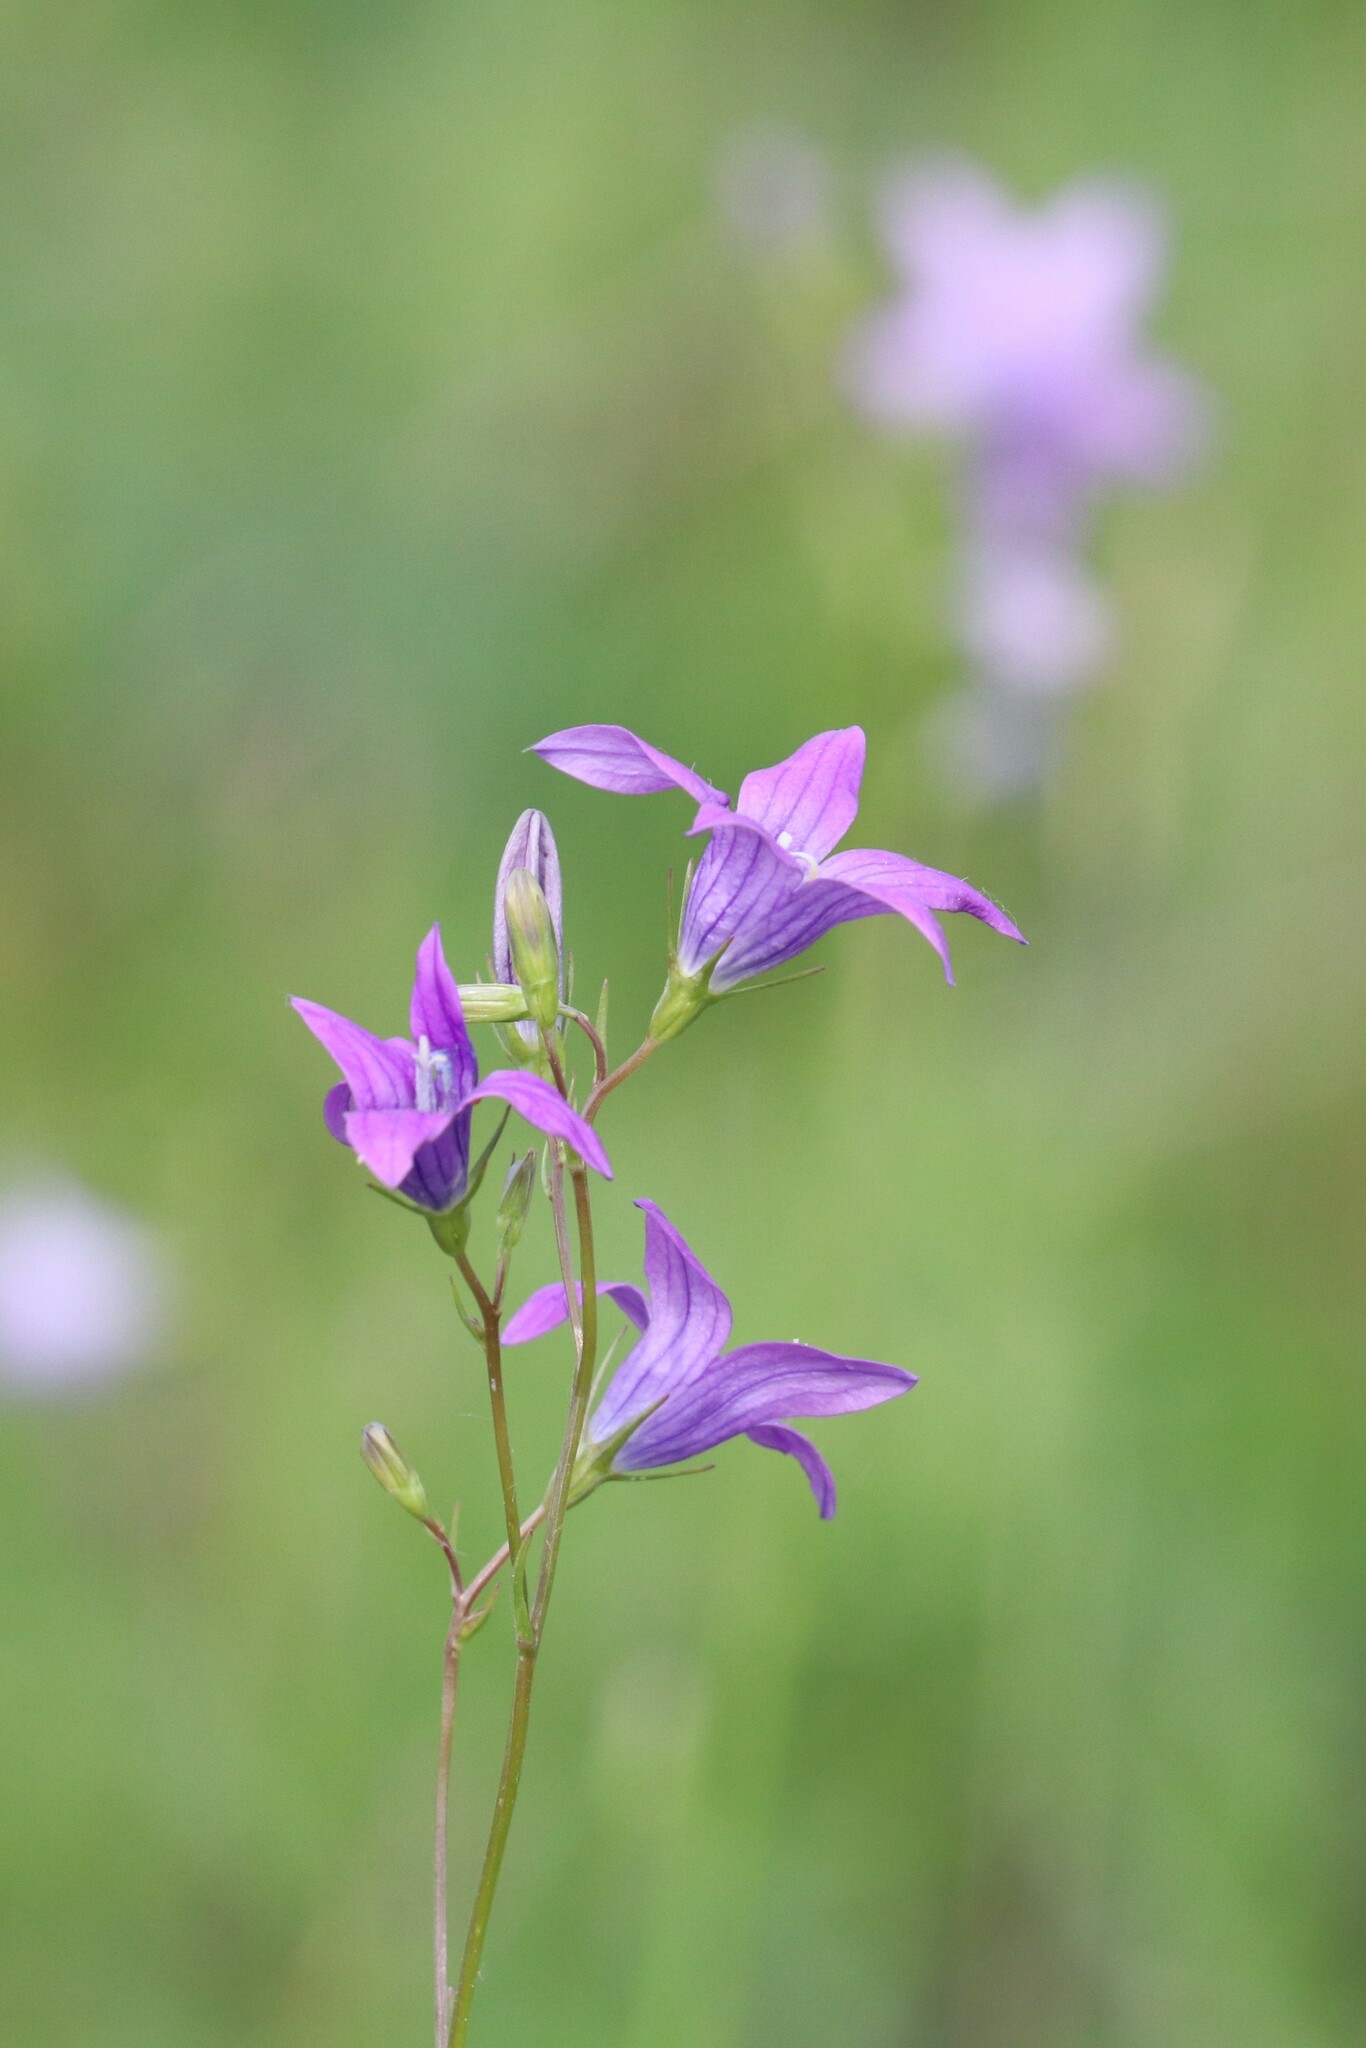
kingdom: Plantae
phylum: Tracheophyta
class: Magnoliopsida
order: Asterales
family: Campanulaceae
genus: Campanula
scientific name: Campanula patula
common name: Spreading bellflower
